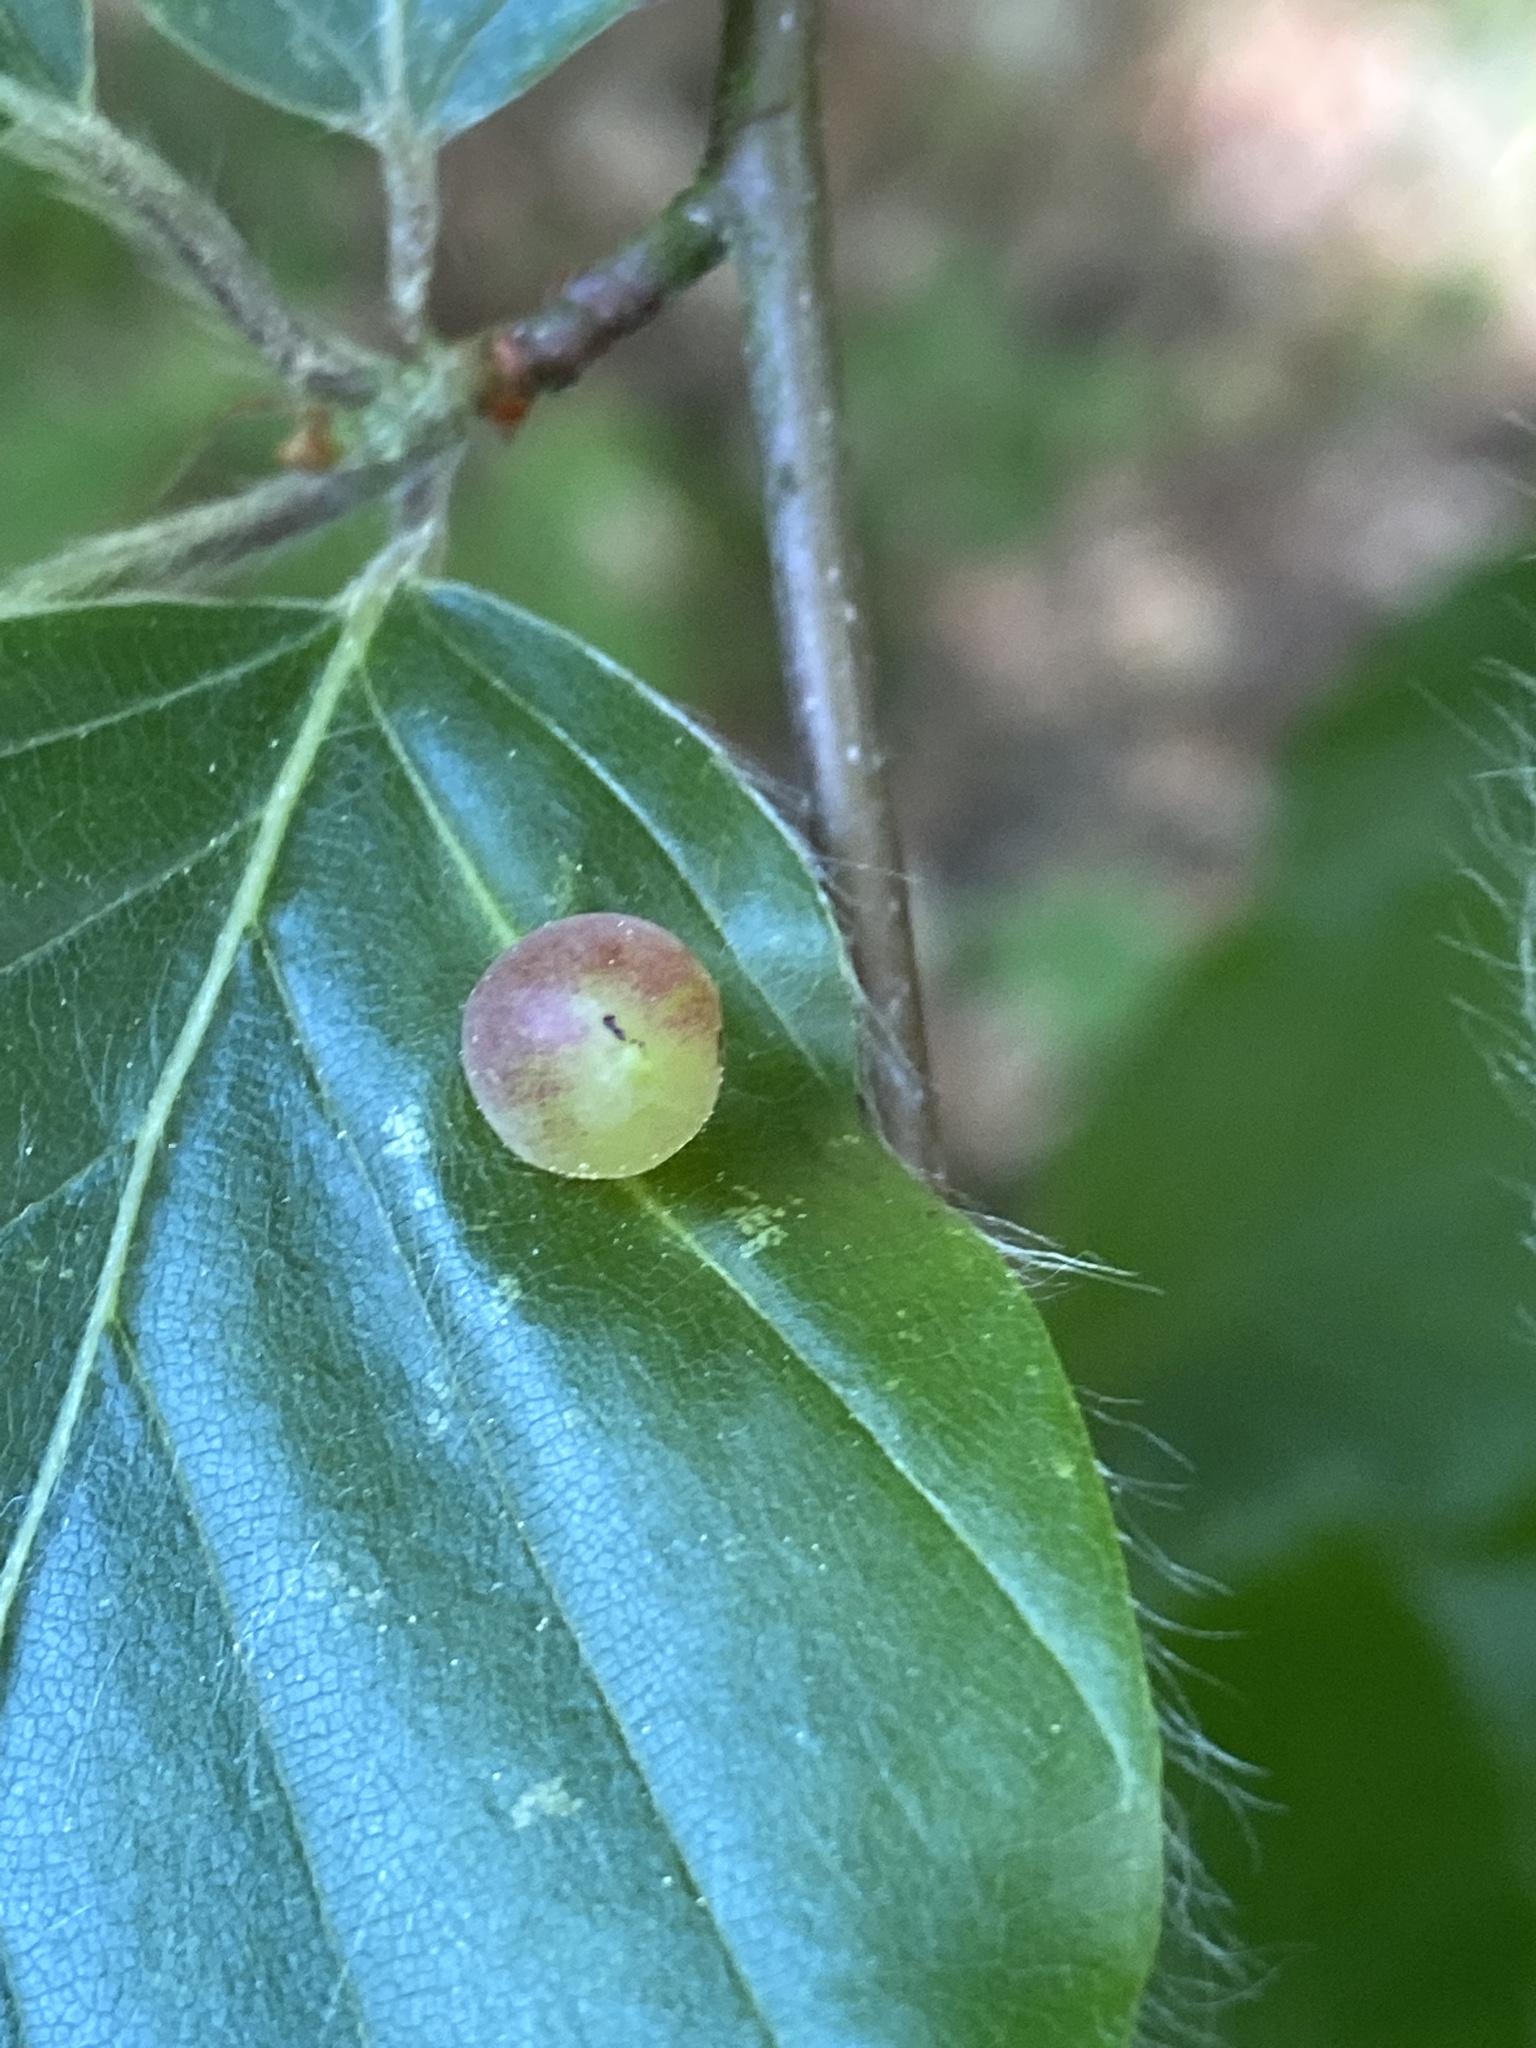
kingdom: Animalia
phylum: Arthropoda
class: Insecta
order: Diptera
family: Cecidomyiidae
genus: Mikiola
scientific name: Mikiola fagi
